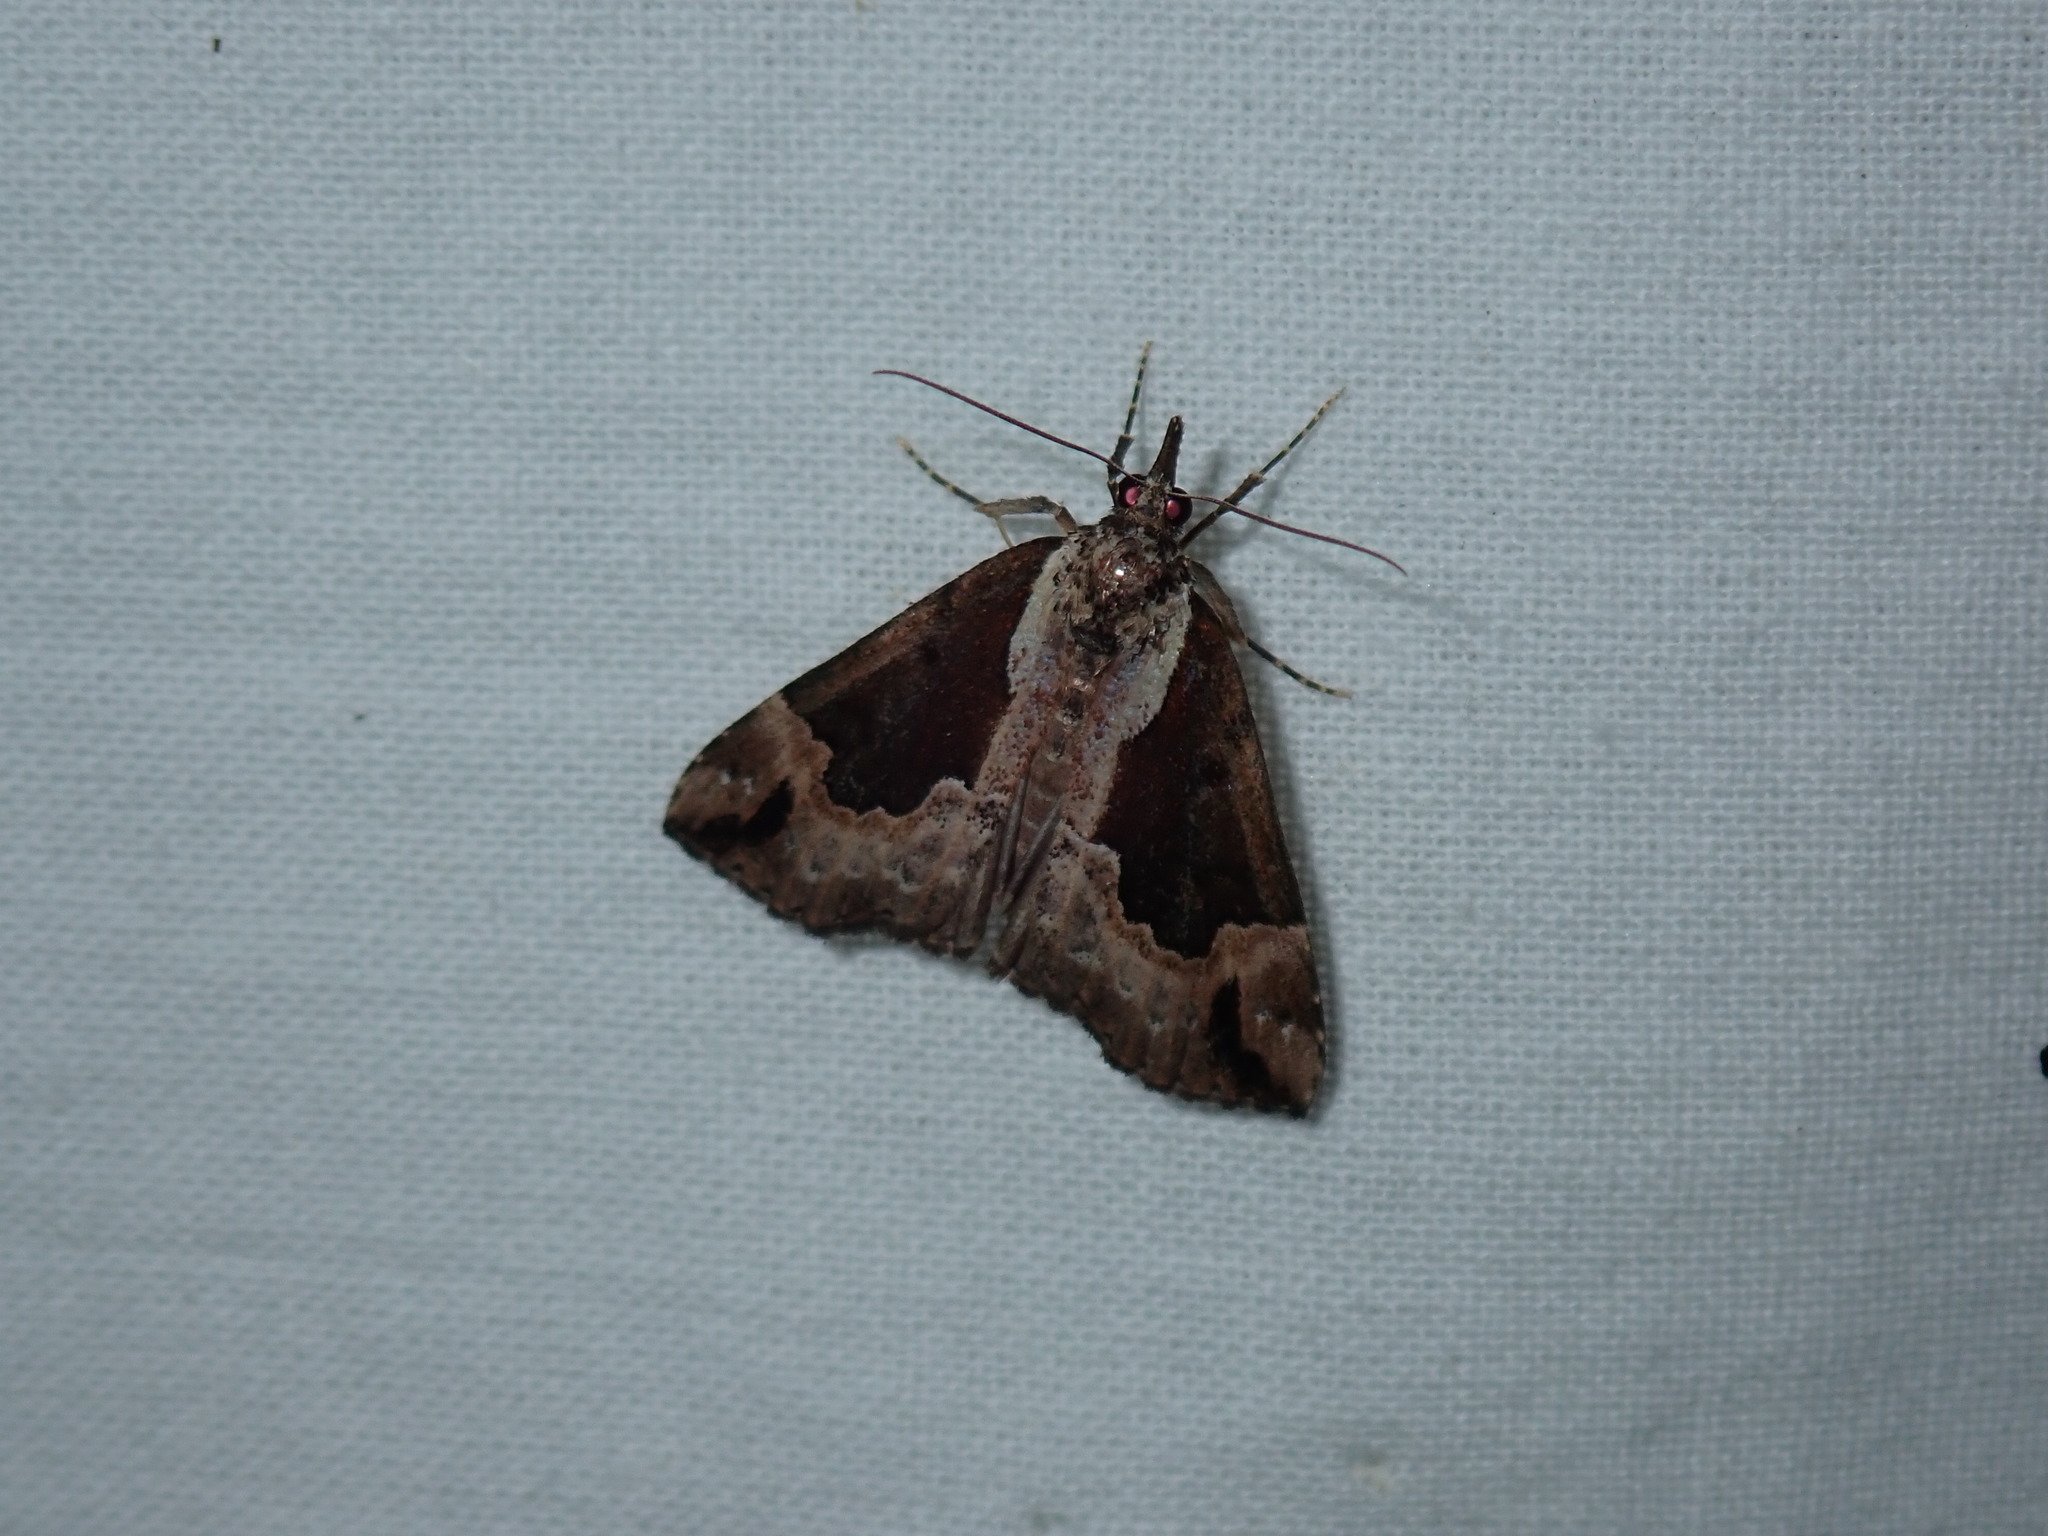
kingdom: Animalia
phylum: Arthropoda
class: Insecta
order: Lepidoptera
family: Erebidae
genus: Hypena
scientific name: Hypena baltimoralis
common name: Baltimore snout
